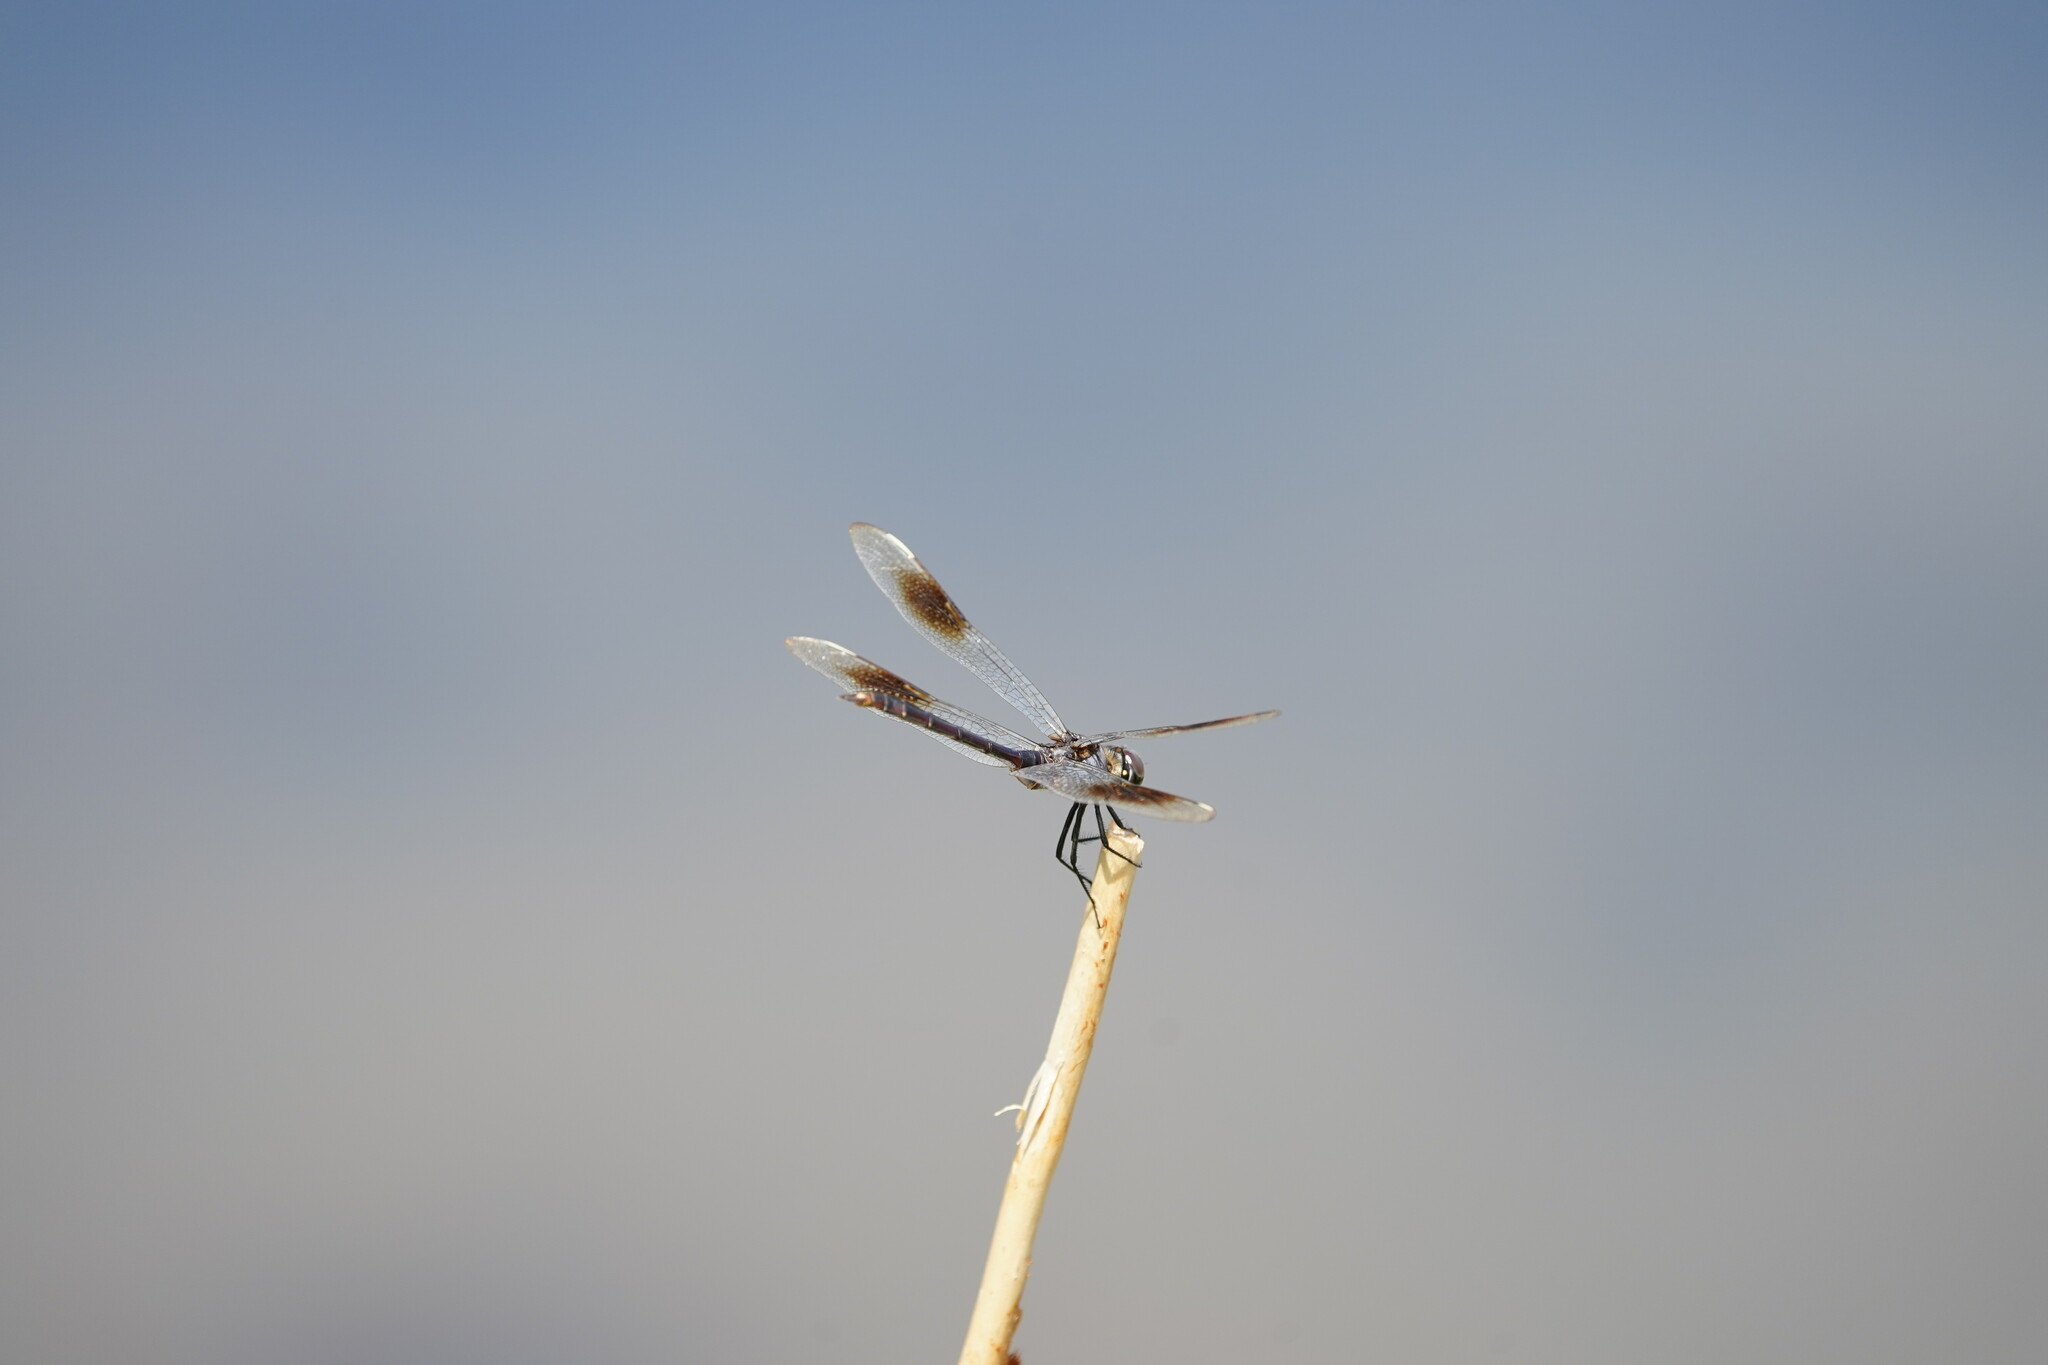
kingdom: Animalia
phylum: Arthropoda
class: Insecta
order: Odonata
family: Libellulidae
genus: Brachymesia
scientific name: Brachymesia gravida
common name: Four-spotted pennant
